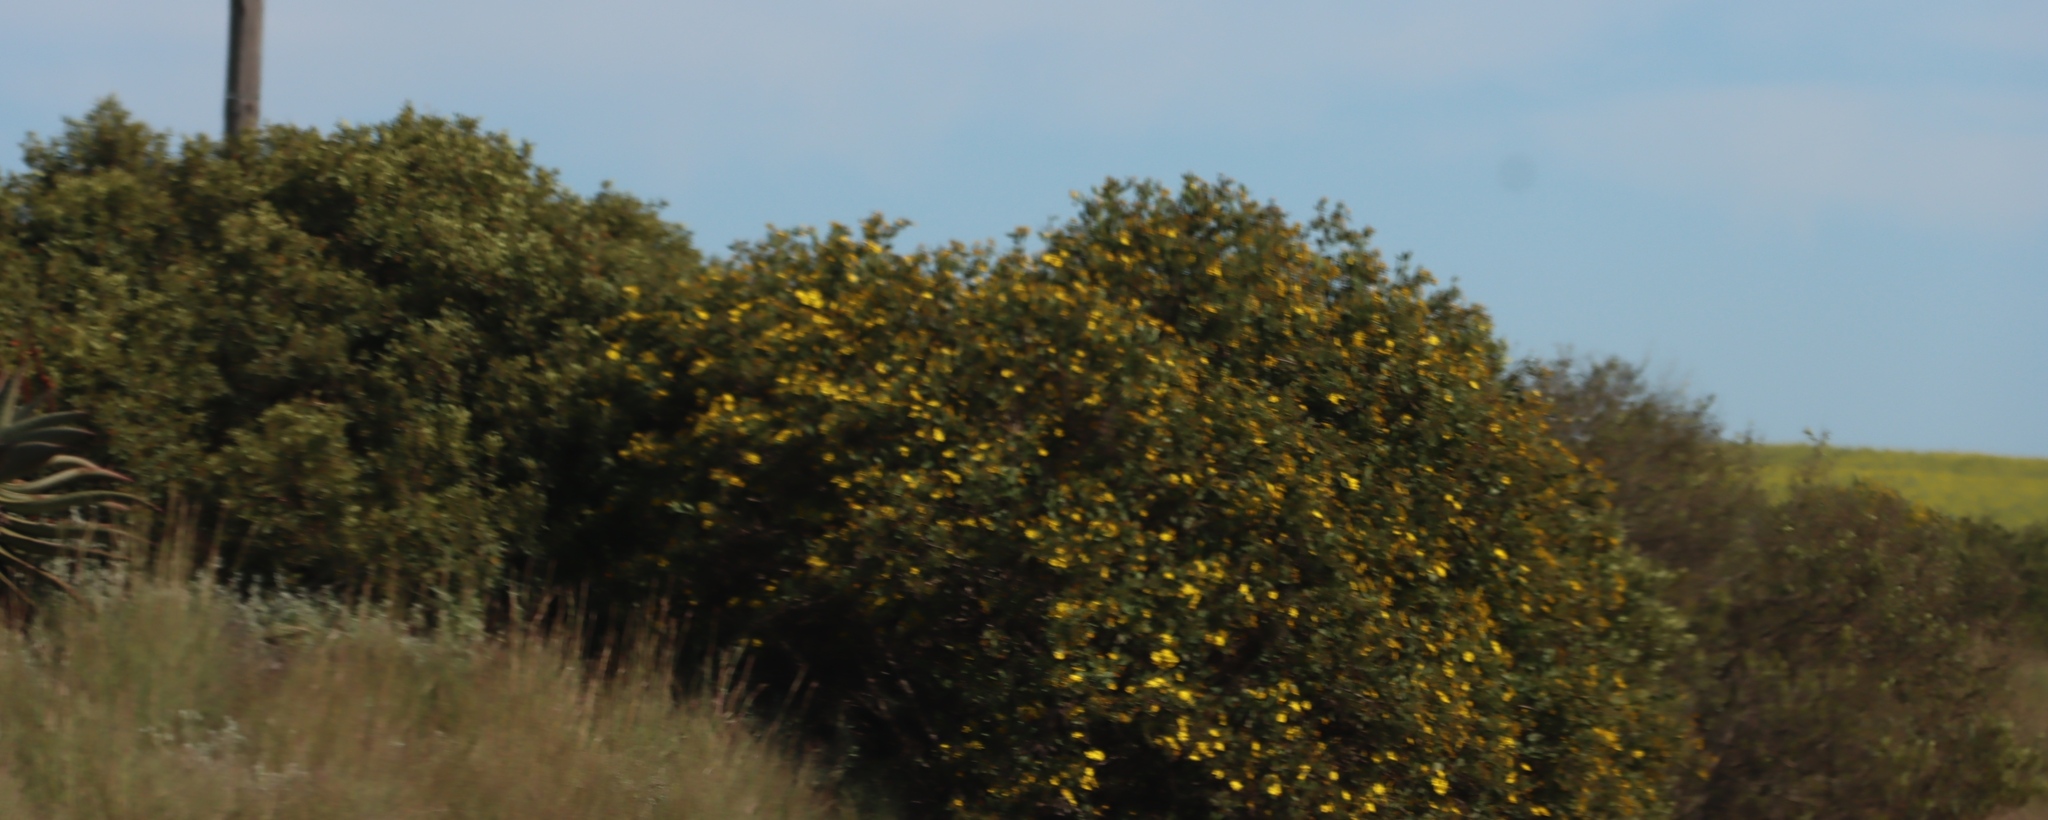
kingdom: Plantae
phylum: Tracheophyta
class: Magnoliopsida
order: Asterales
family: Asteraceae
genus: Osteospermum
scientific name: Osteospermum moniliferum
